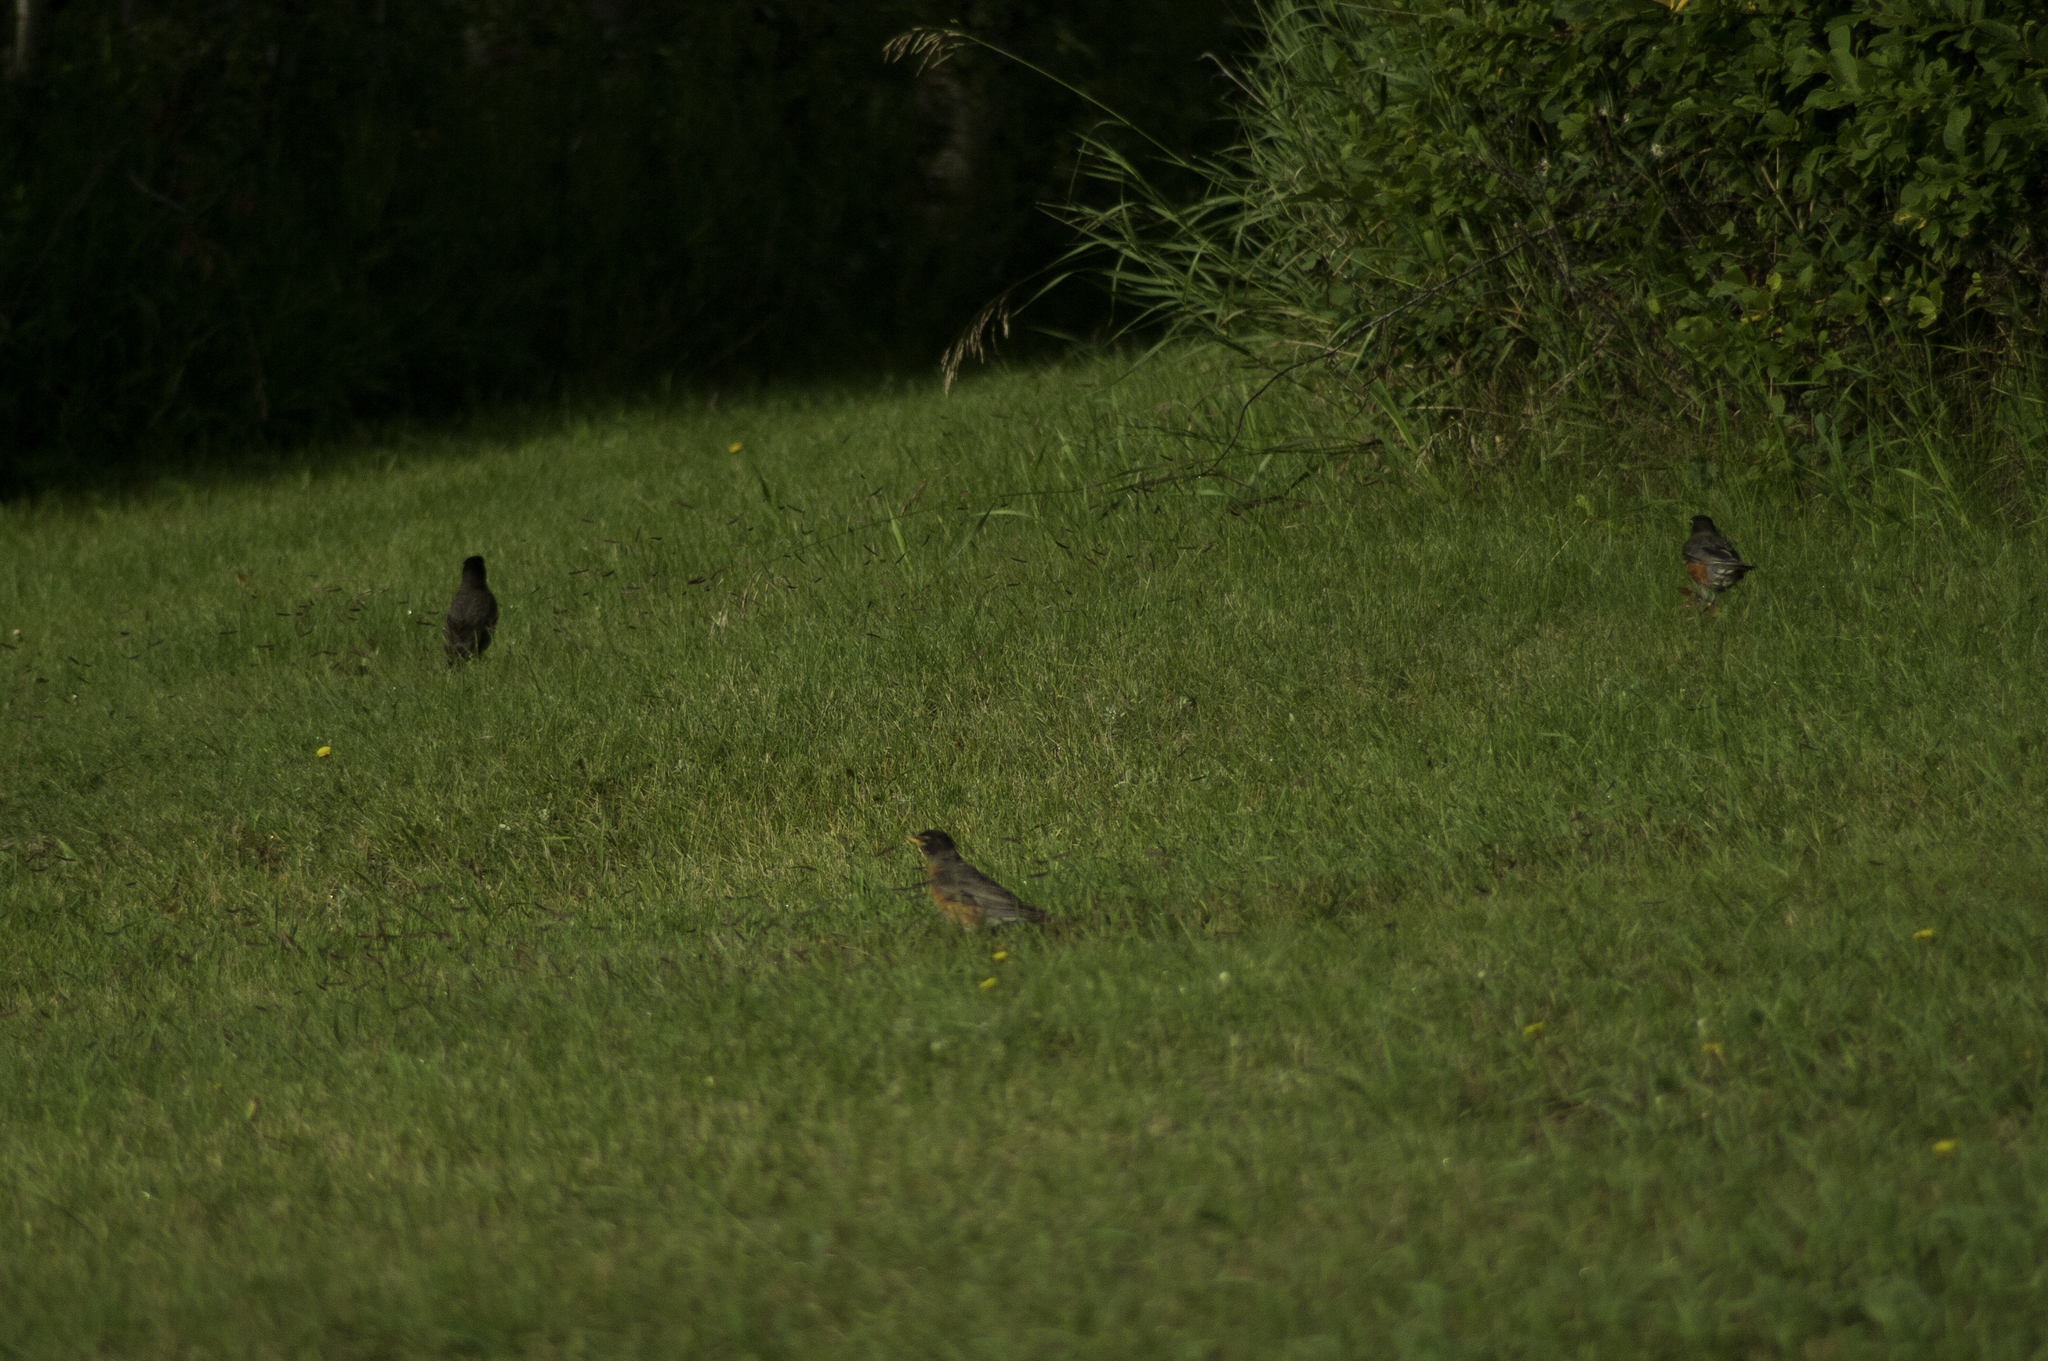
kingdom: Animalia
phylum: Chordata
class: Aves
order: Passeriformes
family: Turdidae
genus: Turdus
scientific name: Turdus migratorius
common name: American robin
